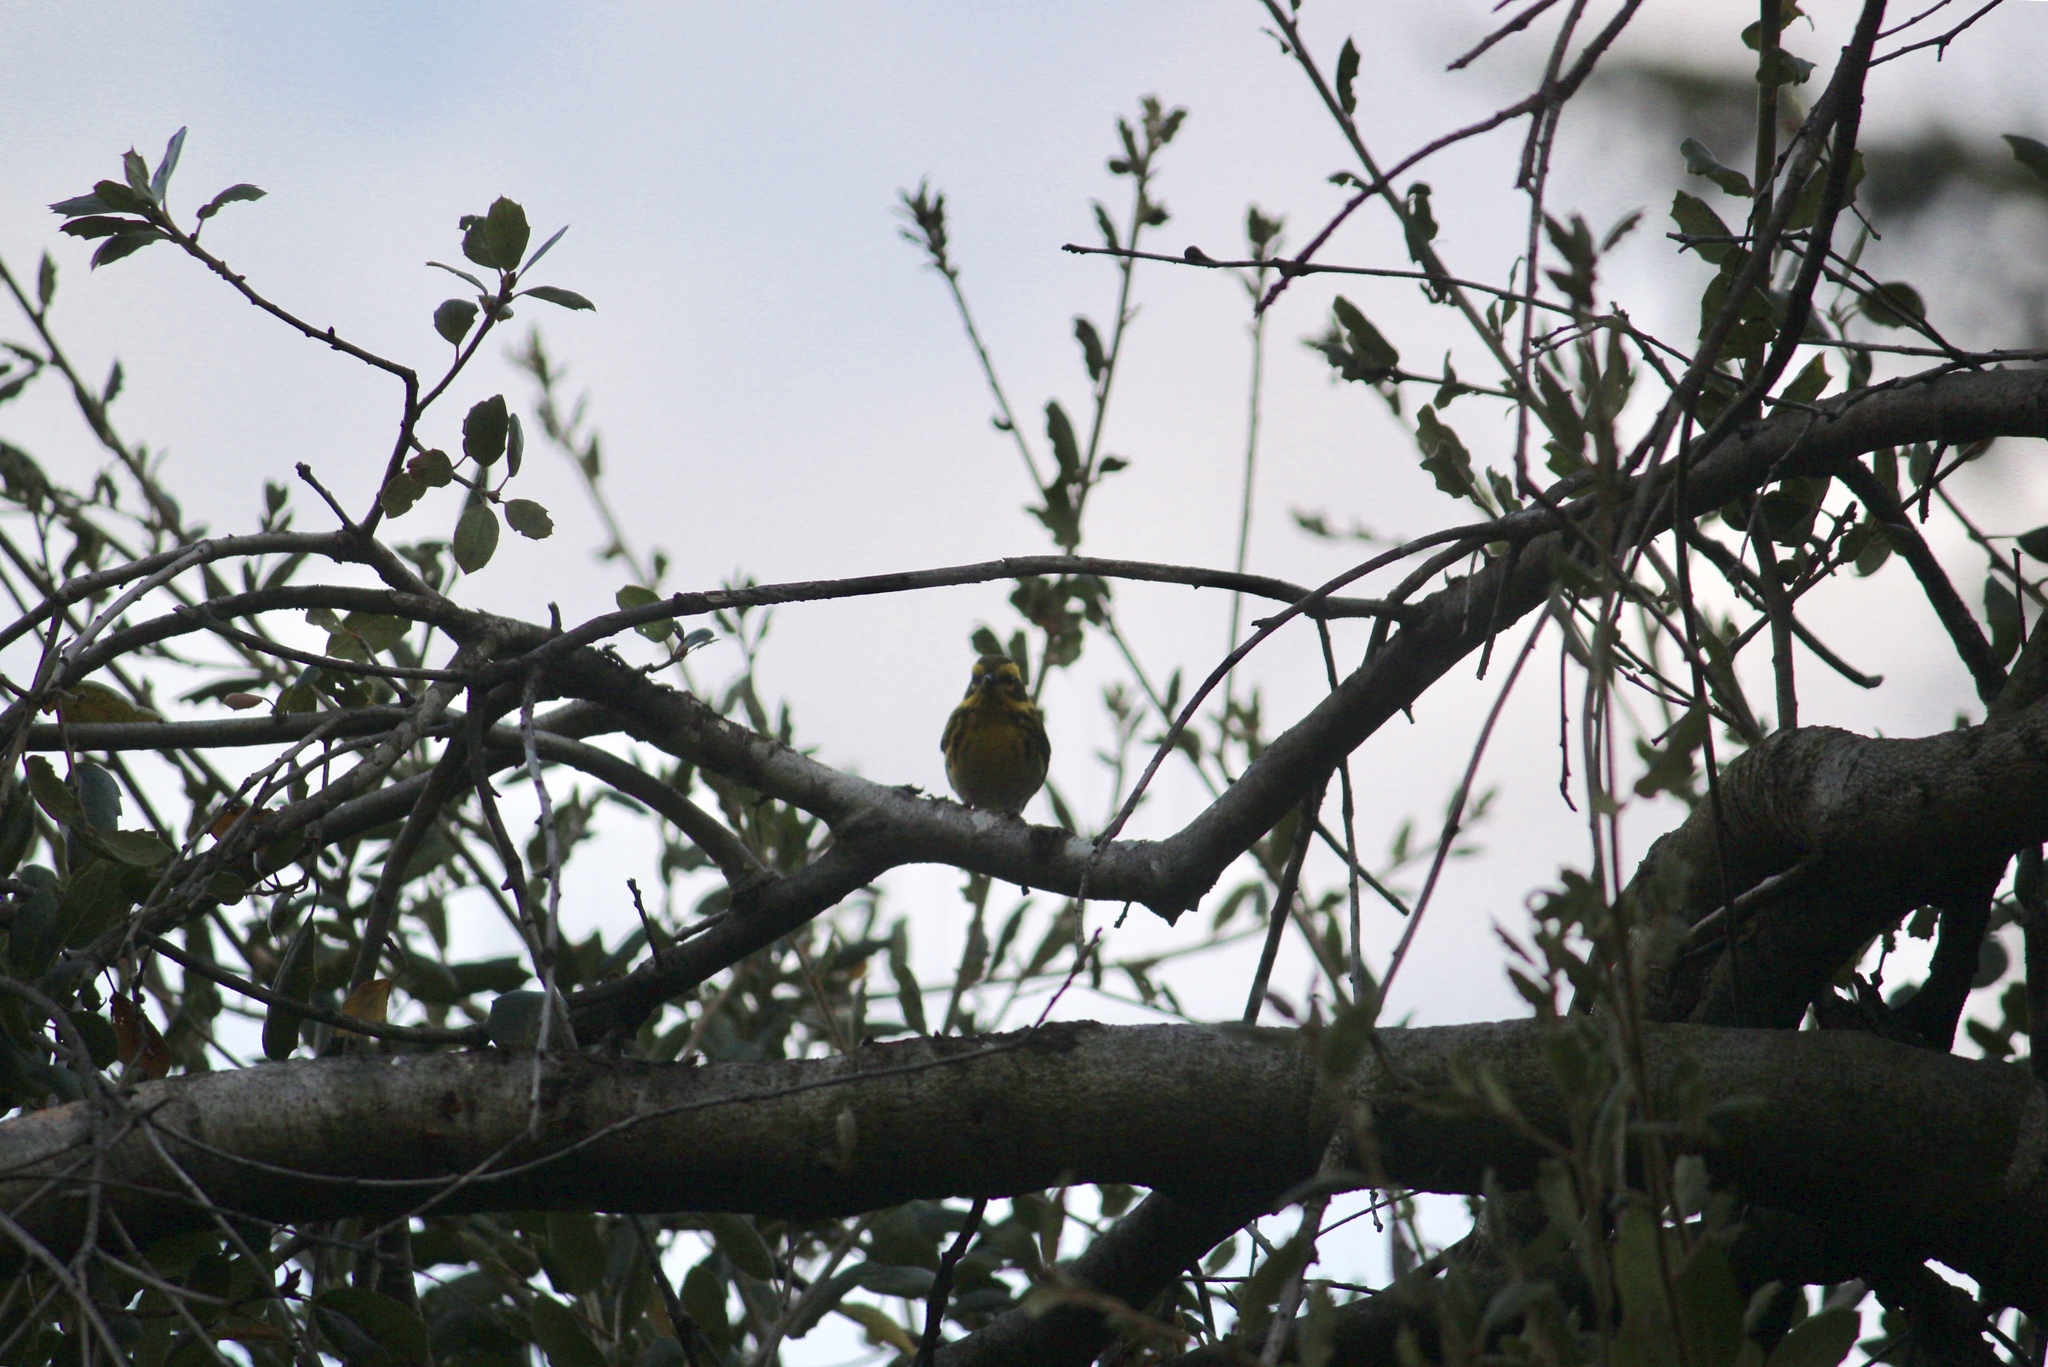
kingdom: Animalia
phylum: Chordata
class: Aves
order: Passeriformes
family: Parulidae
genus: Setophaga
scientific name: Setophaga townsendi
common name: Townsend's warbler
